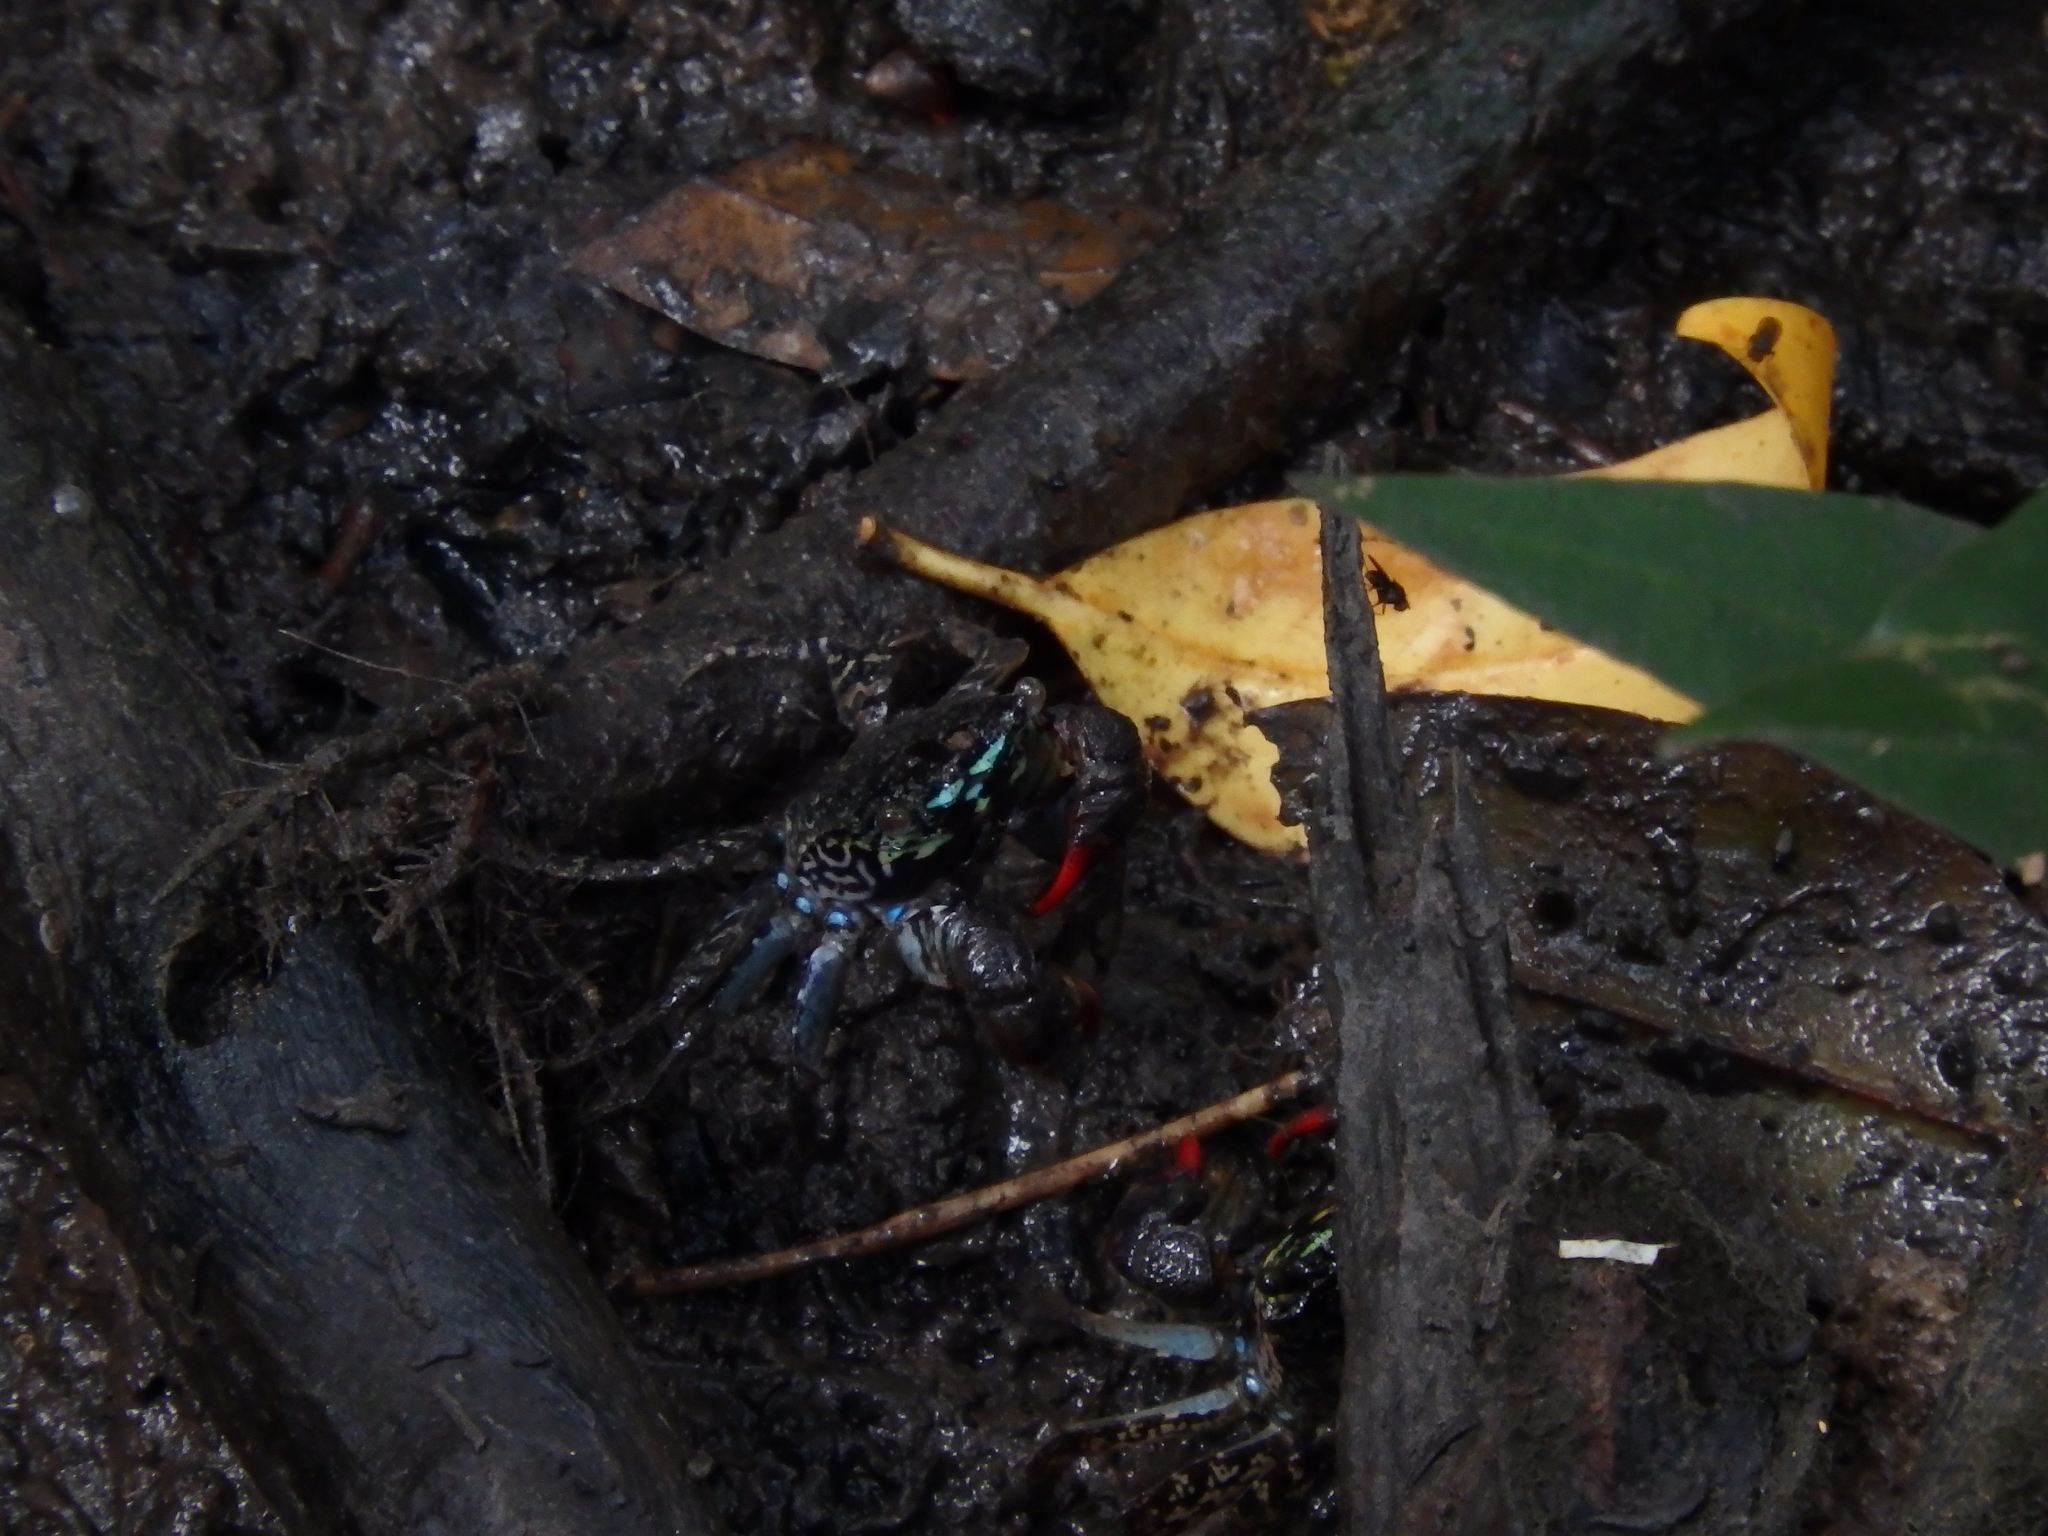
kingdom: Animalia
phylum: Arthropoda
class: Malacostraca
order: Decapoda
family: Sesarmidae
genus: Parasesarma
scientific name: Parasesarma eumolpe
